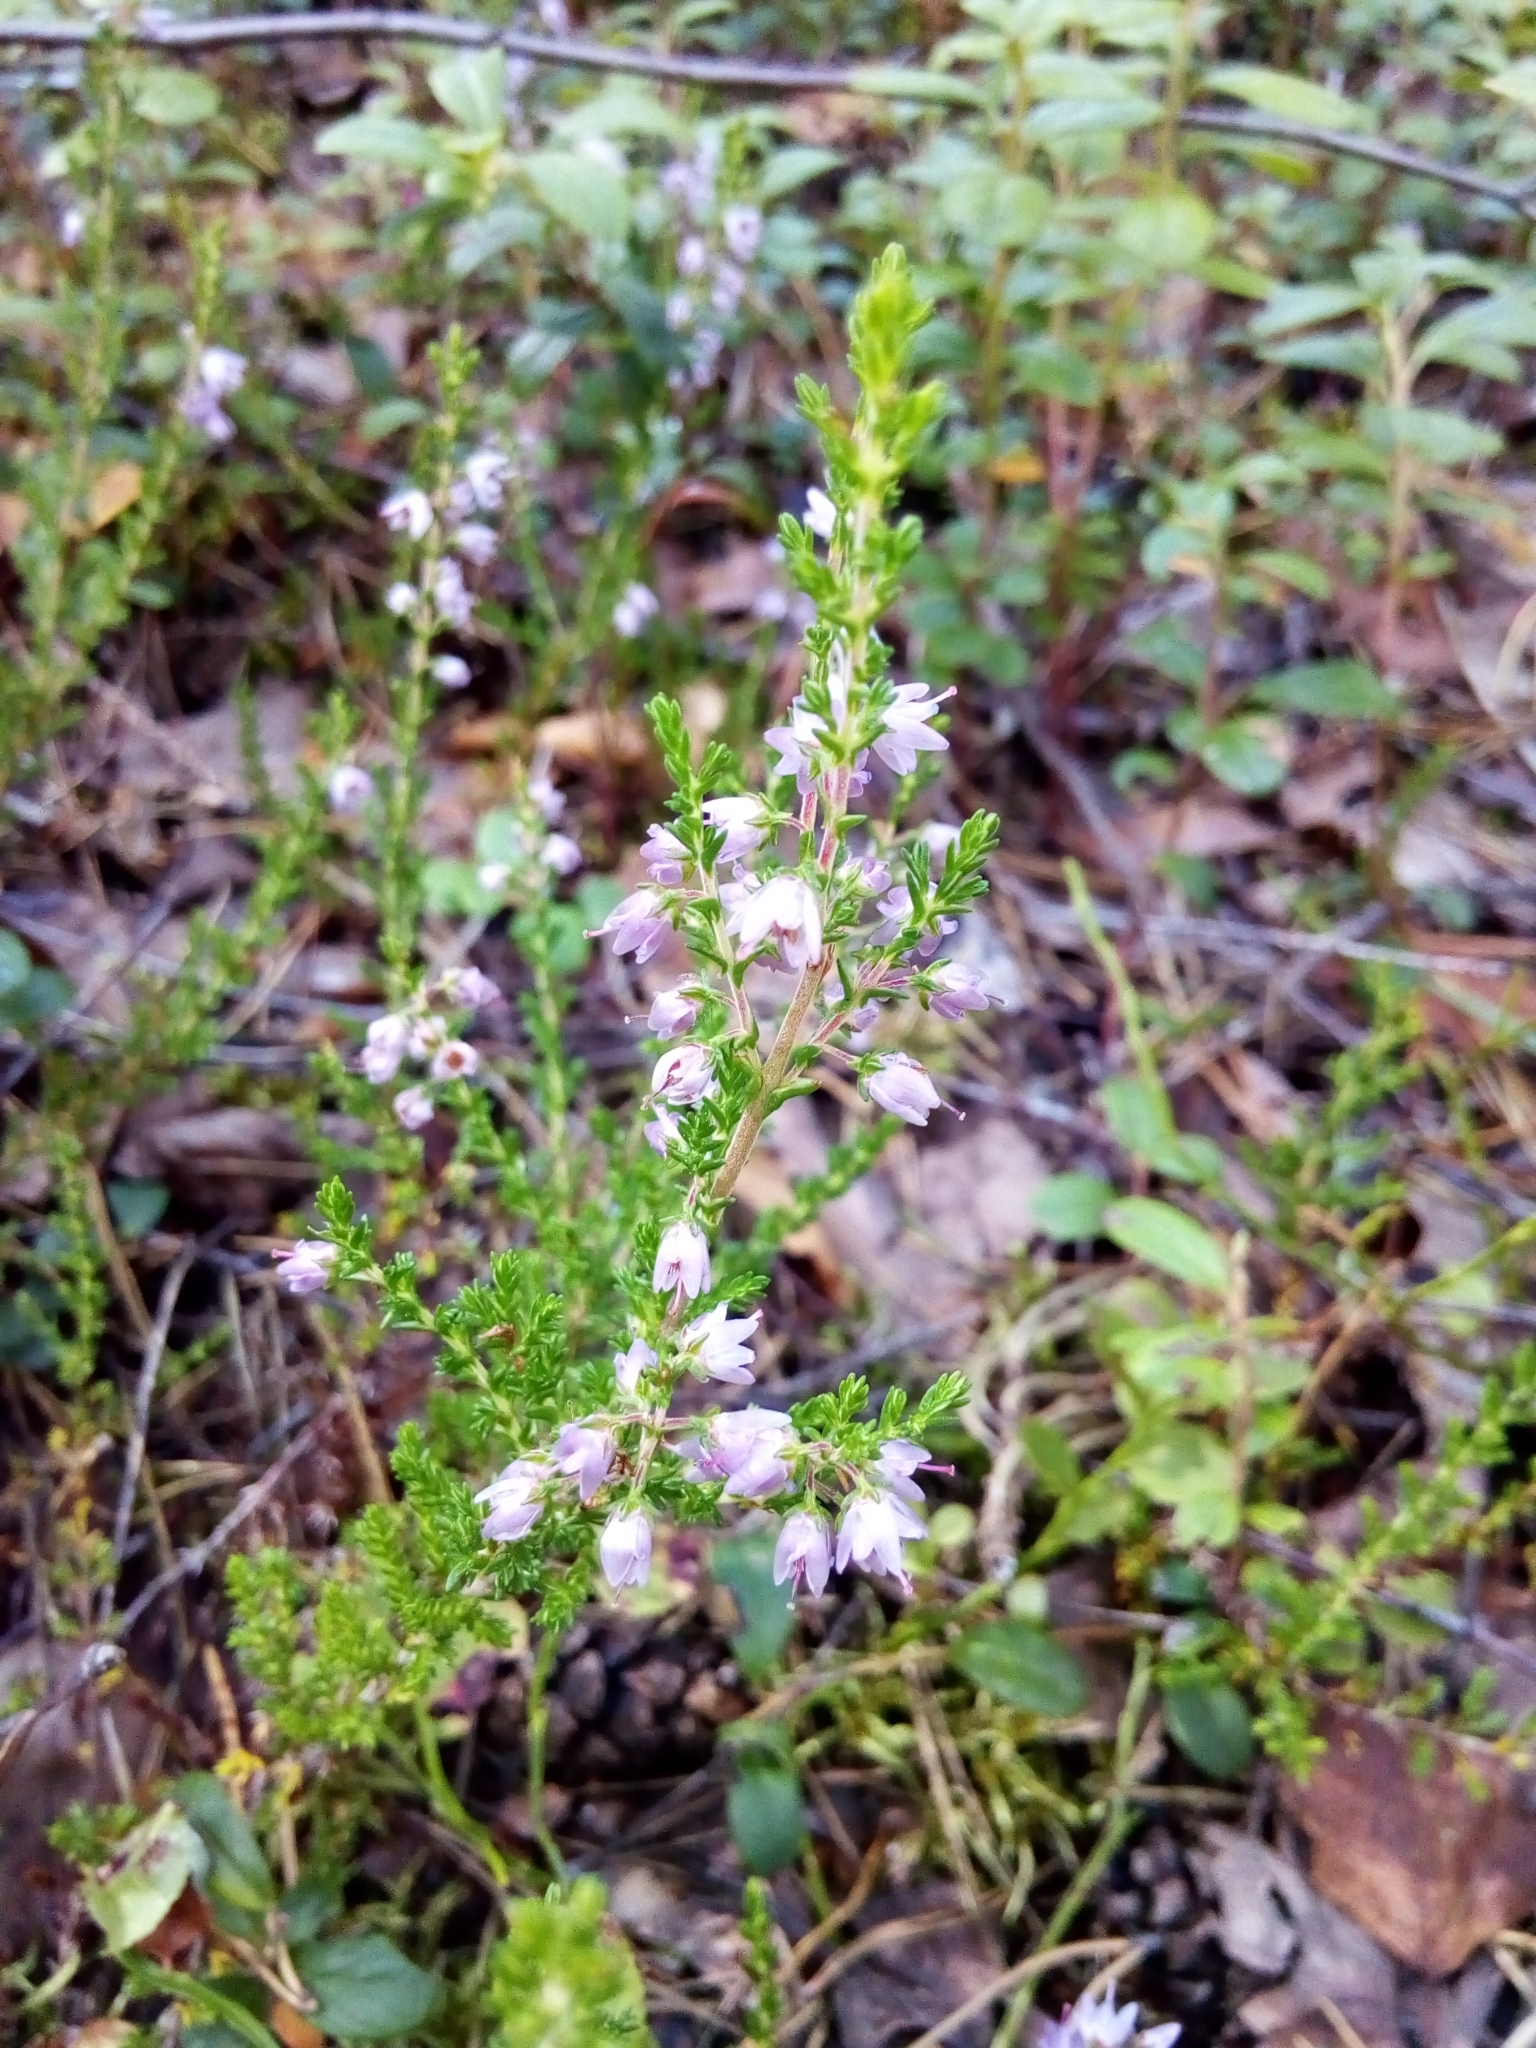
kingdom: Plantae
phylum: Tracheophyta
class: Magnoliopsida
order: Ericales
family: Ericaceae
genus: Calluna
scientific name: Calluna vulgaris
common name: Heather
